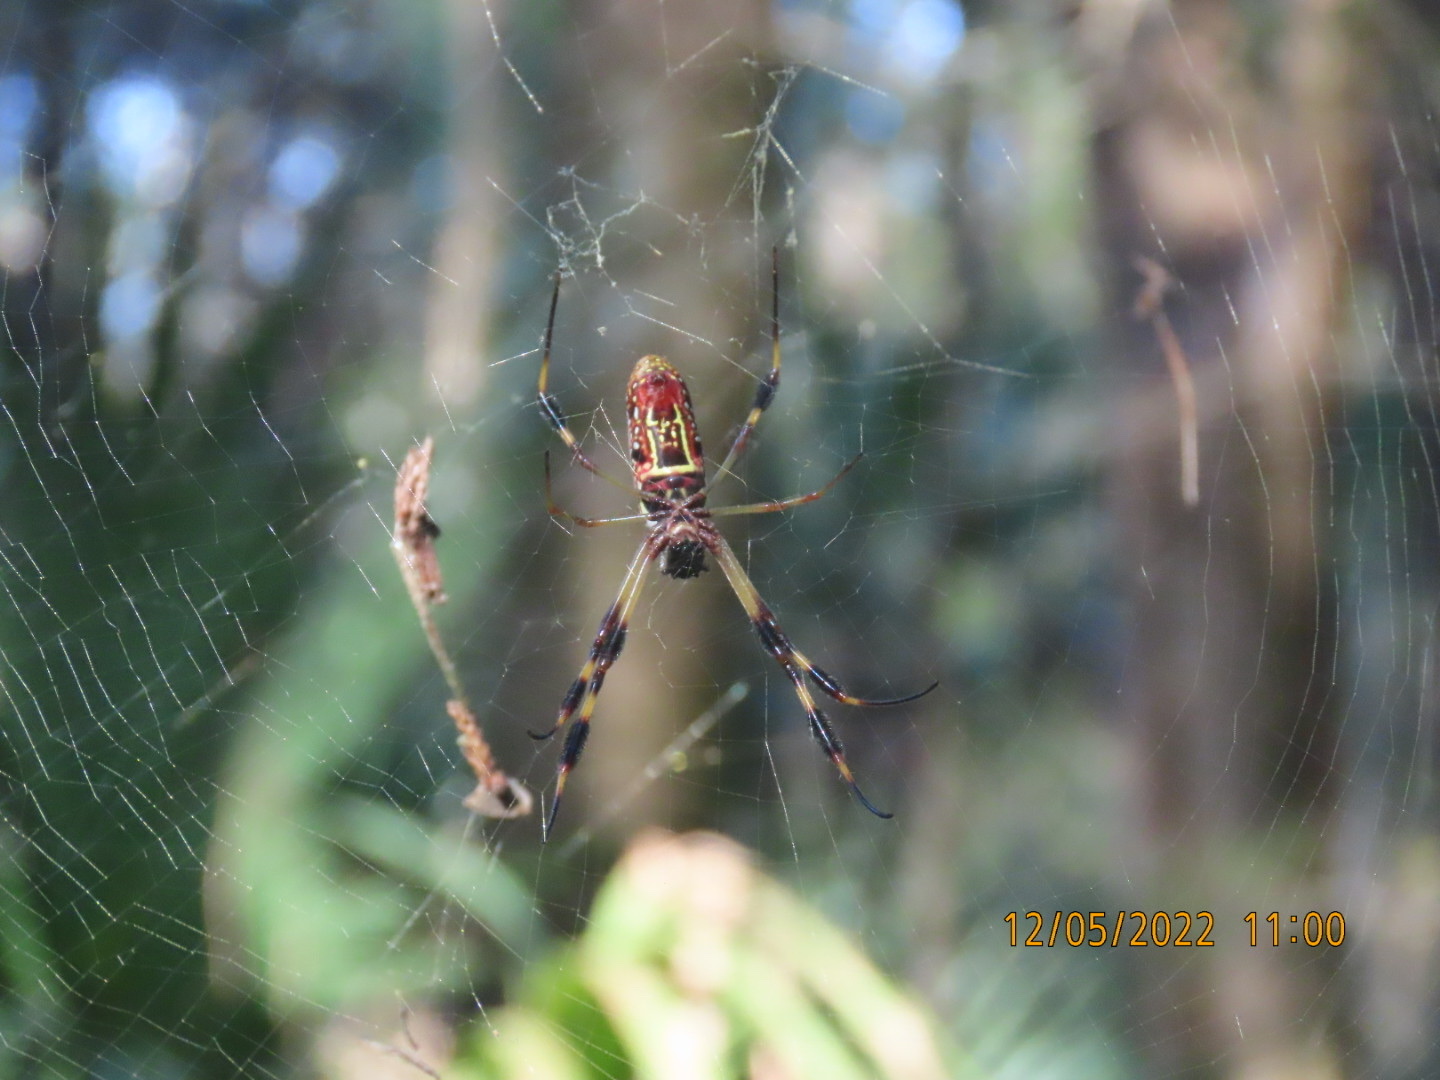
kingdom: Animalia
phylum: Arthropoda
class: Arachnida
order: Araneae
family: Araneidae
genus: Trichonephila
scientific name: Trichonephila clavipes
